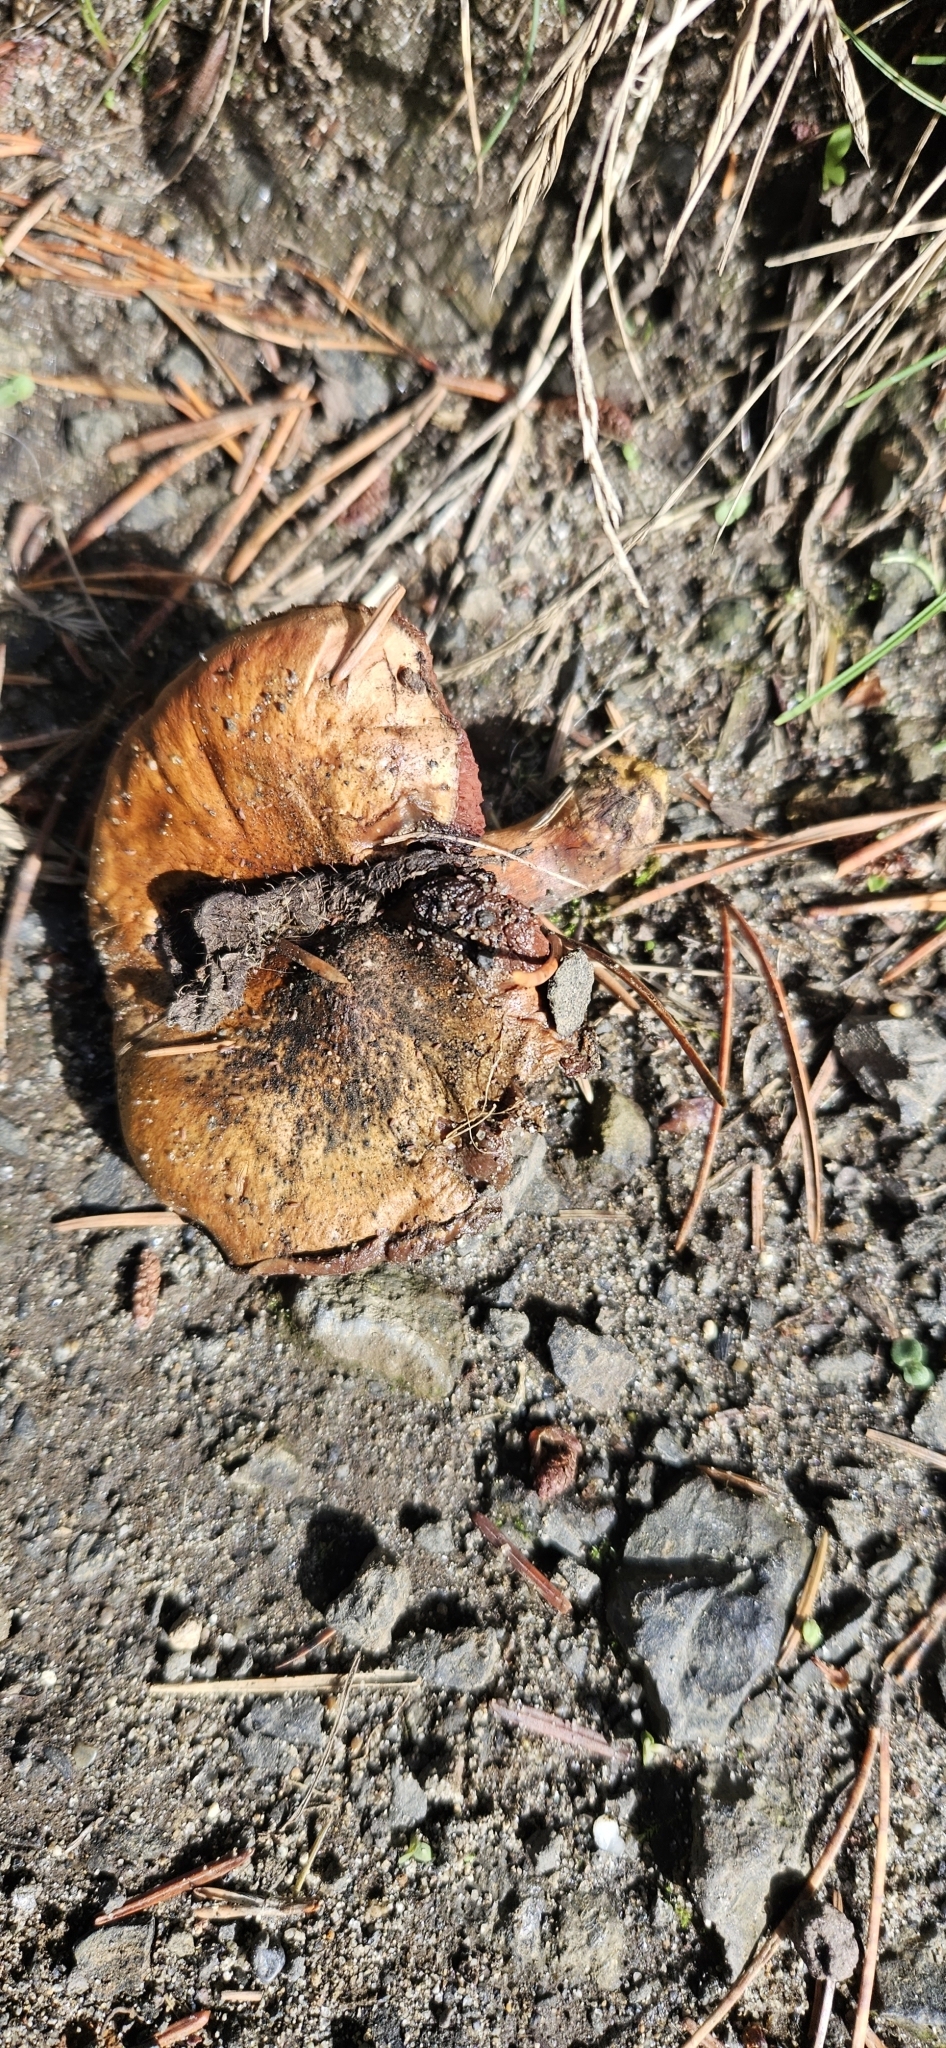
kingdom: Fungi
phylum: Basidiomycota
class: Agaricomycetes
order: Boletales
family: Boletaceae
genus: Chalciporus
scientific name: Chalciporus piperatus
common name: Peppery bolete
